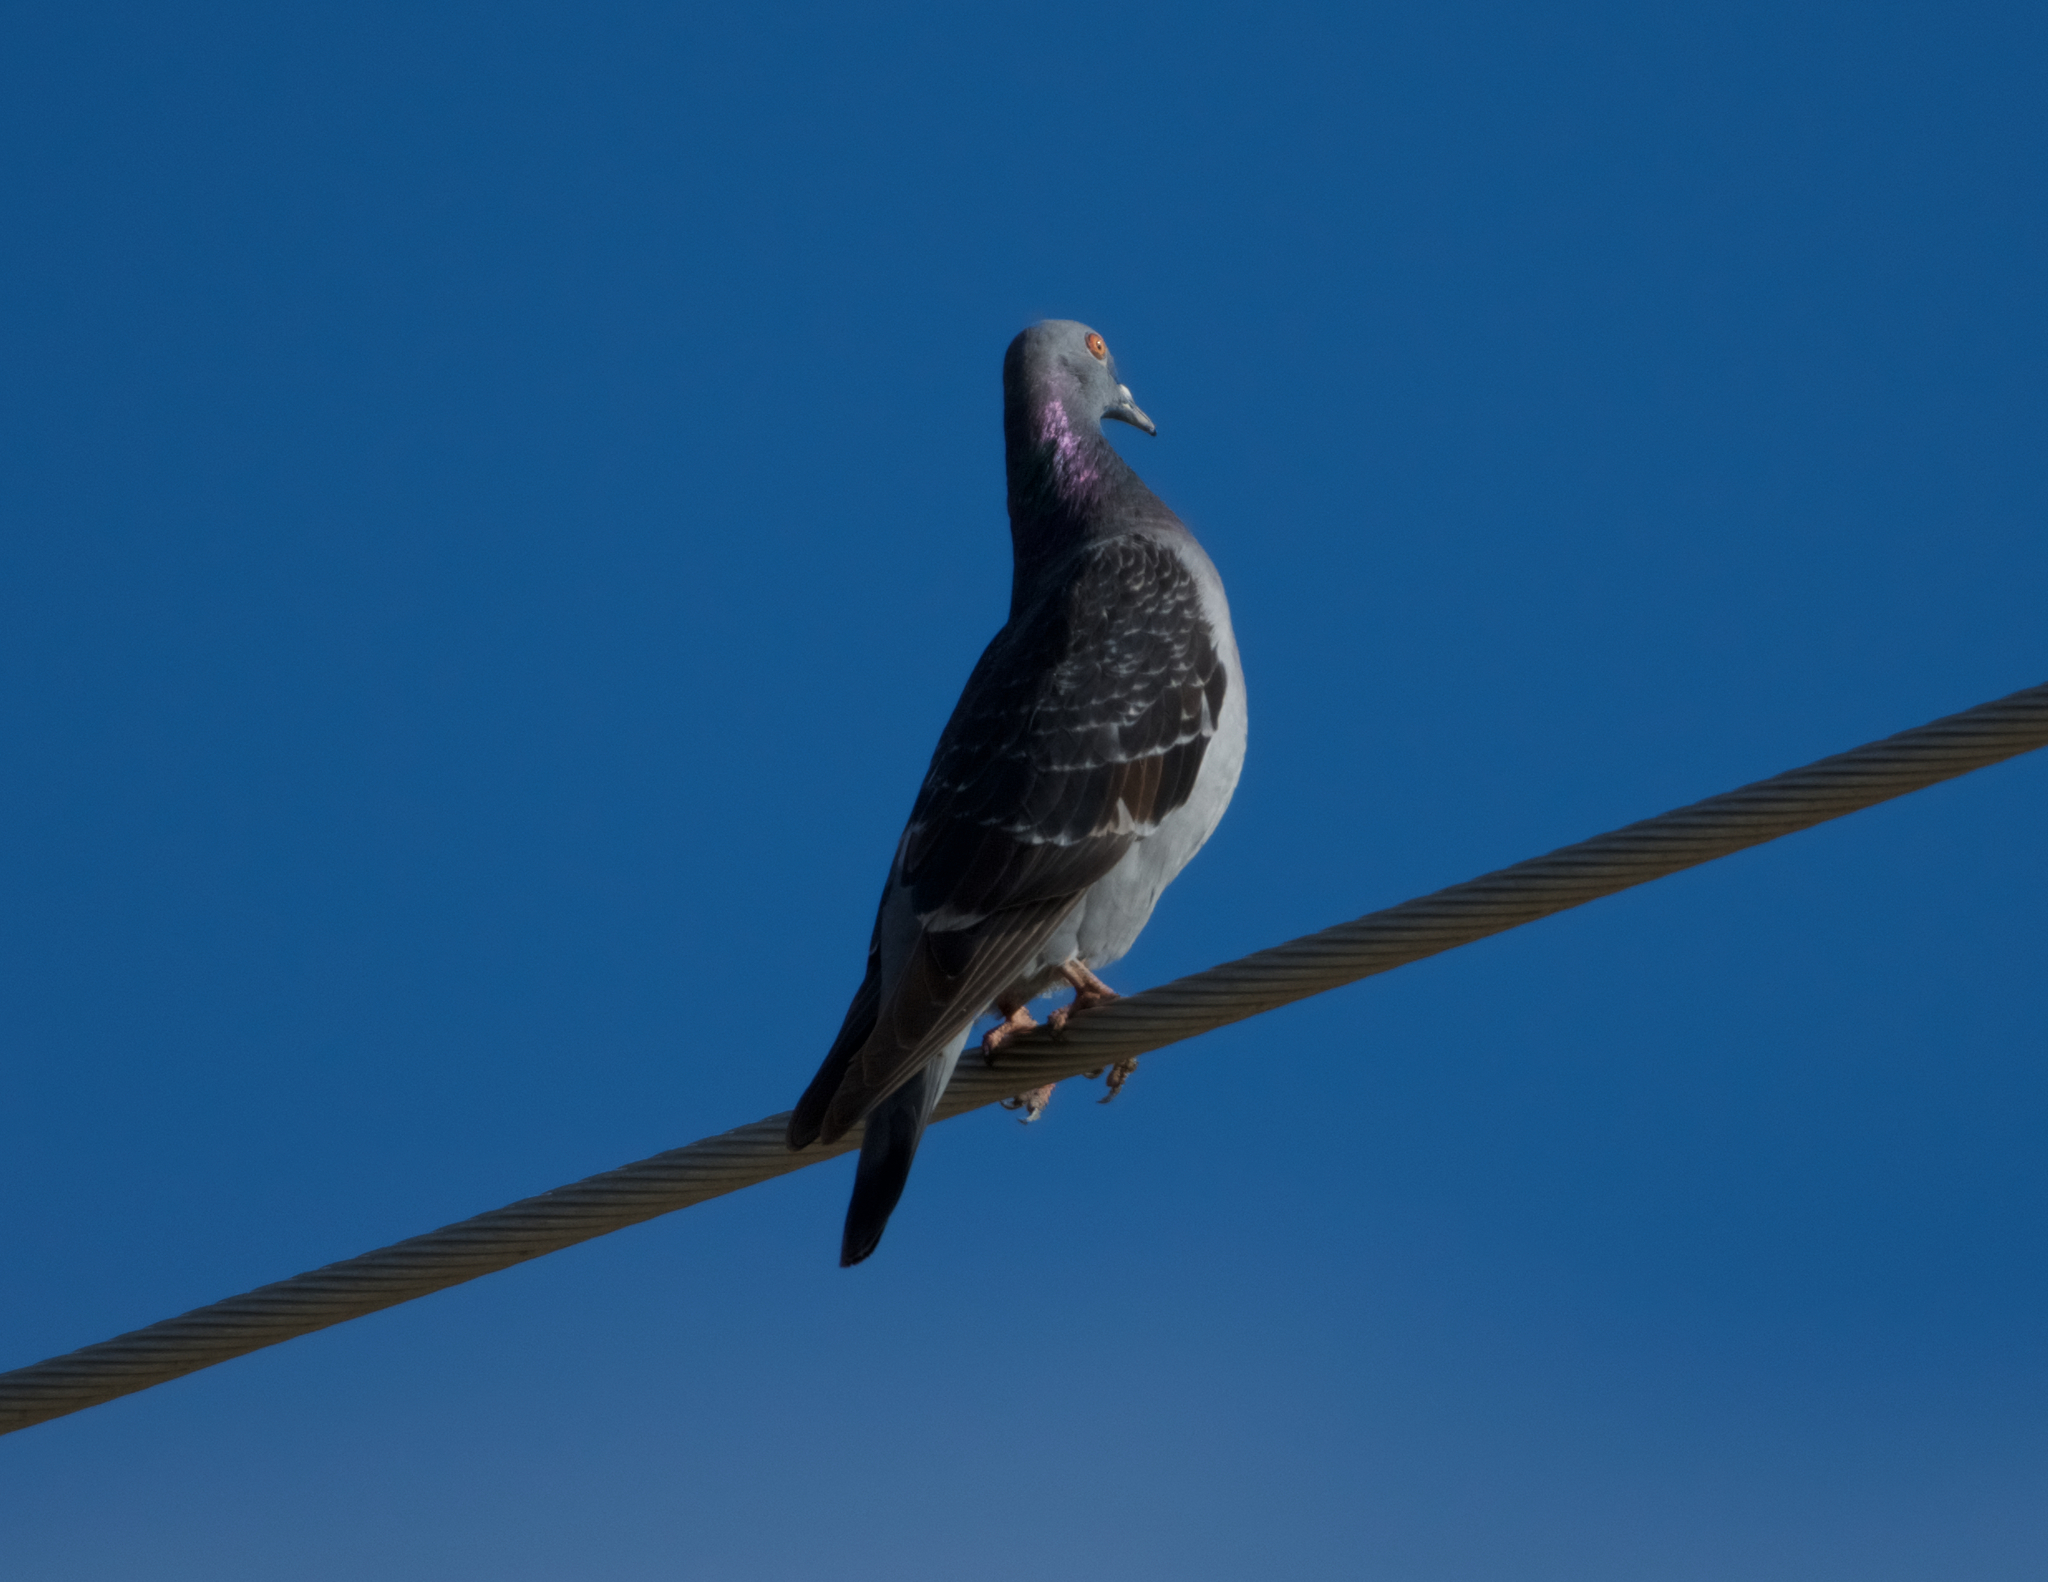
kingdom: Animalia
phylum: Chordata
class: Aves
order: Columbiformes
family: Columbidae
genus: Columba
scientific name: Columba livia
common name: Rock pigeon
